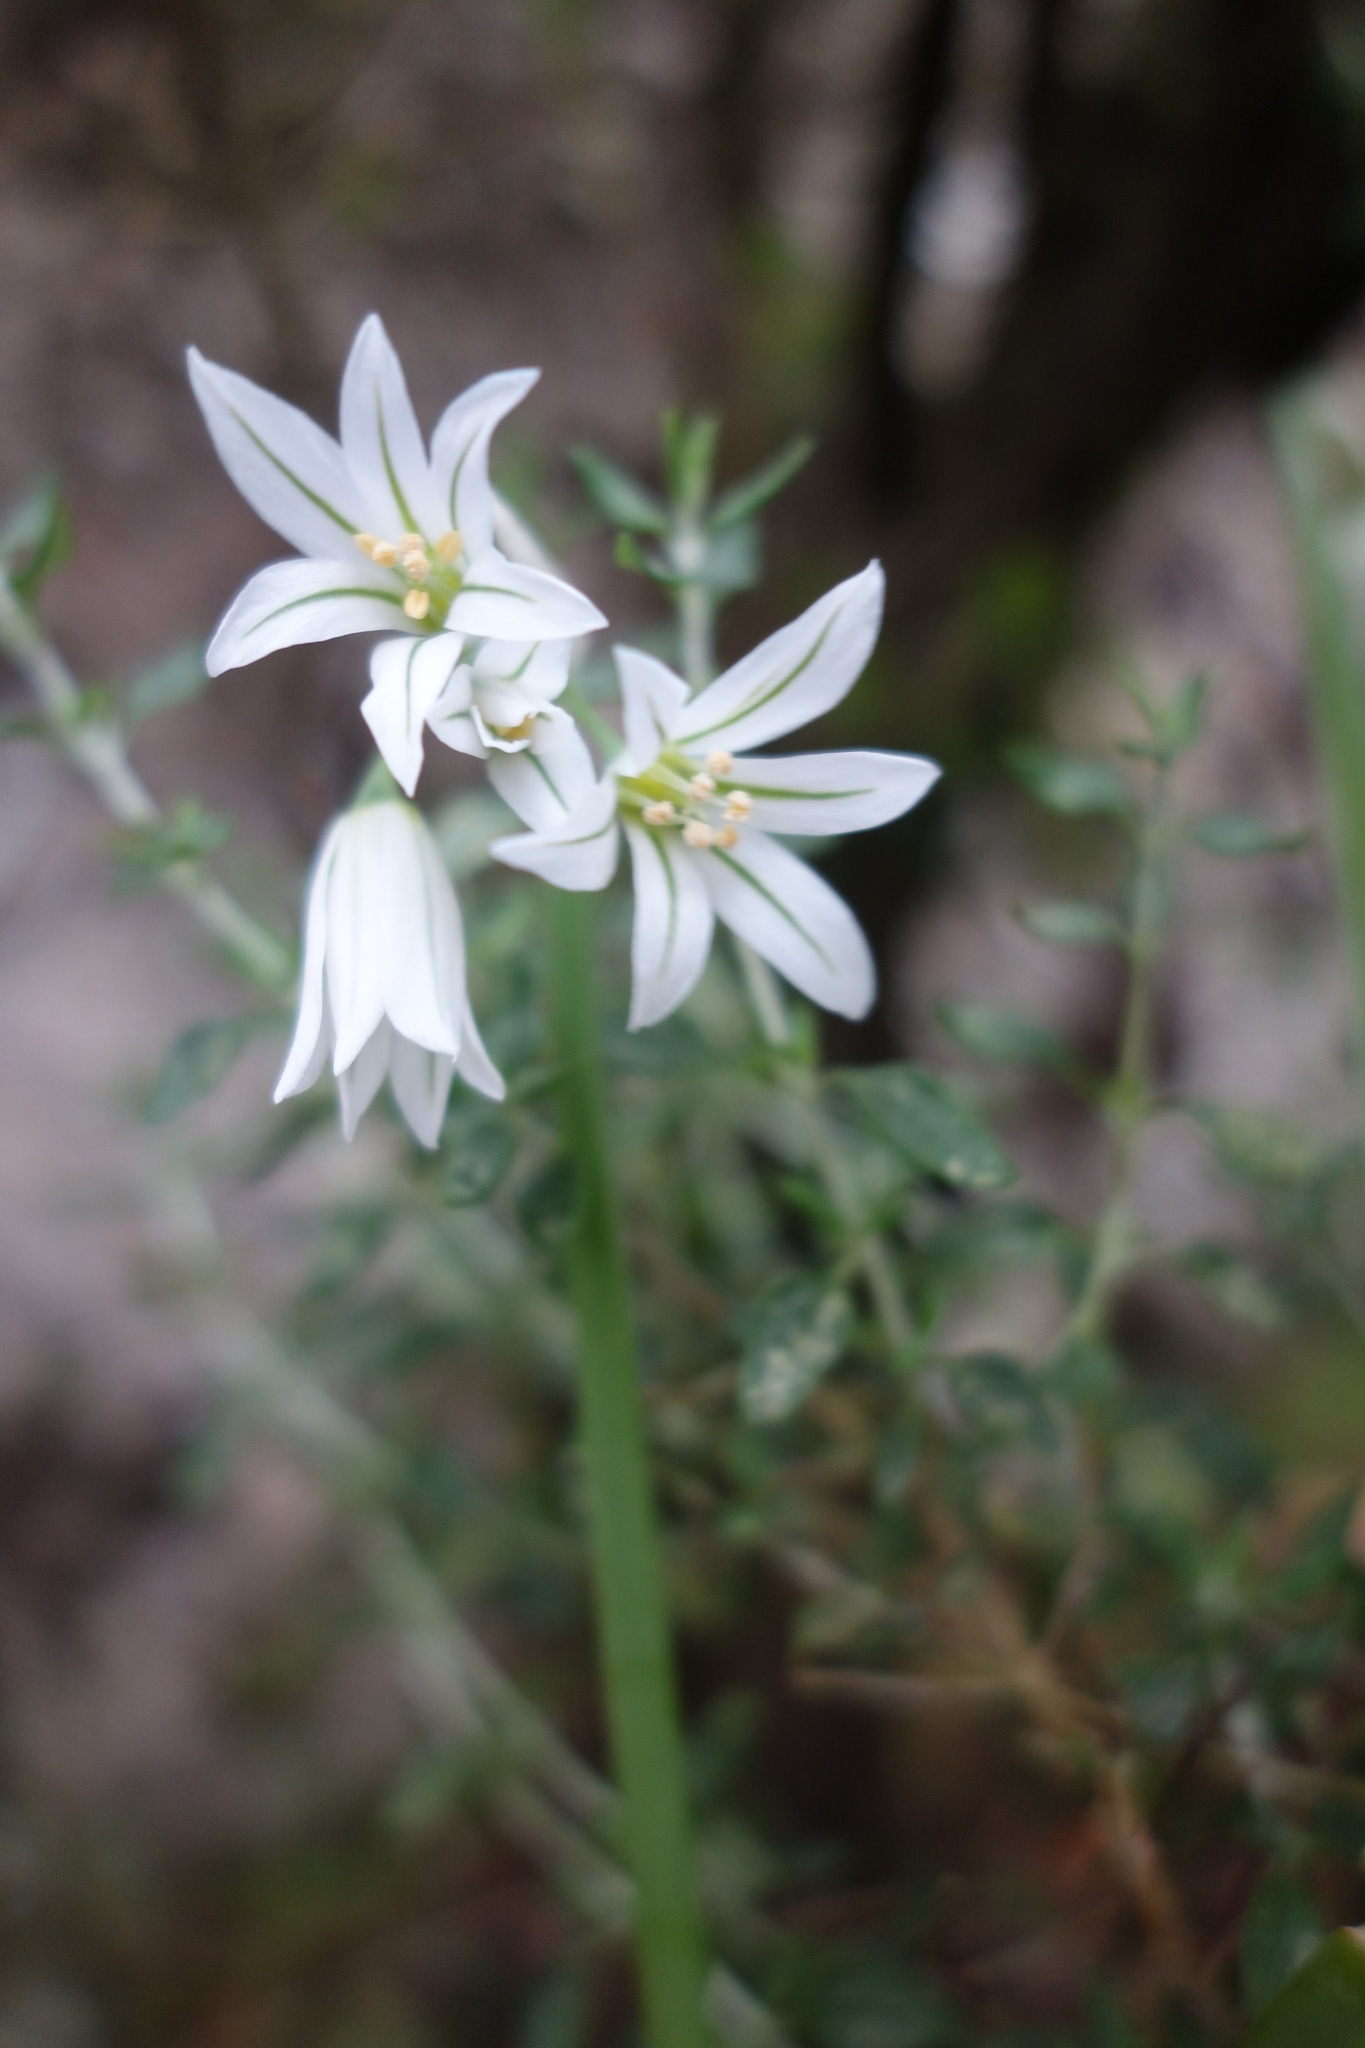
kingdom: Plantae
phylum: Tracheophyta
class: Liliopsida
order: Asparagales
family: Amaryllidaceae
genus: Allium
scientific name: Allium triquetrum
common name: Three-cornered garlic
